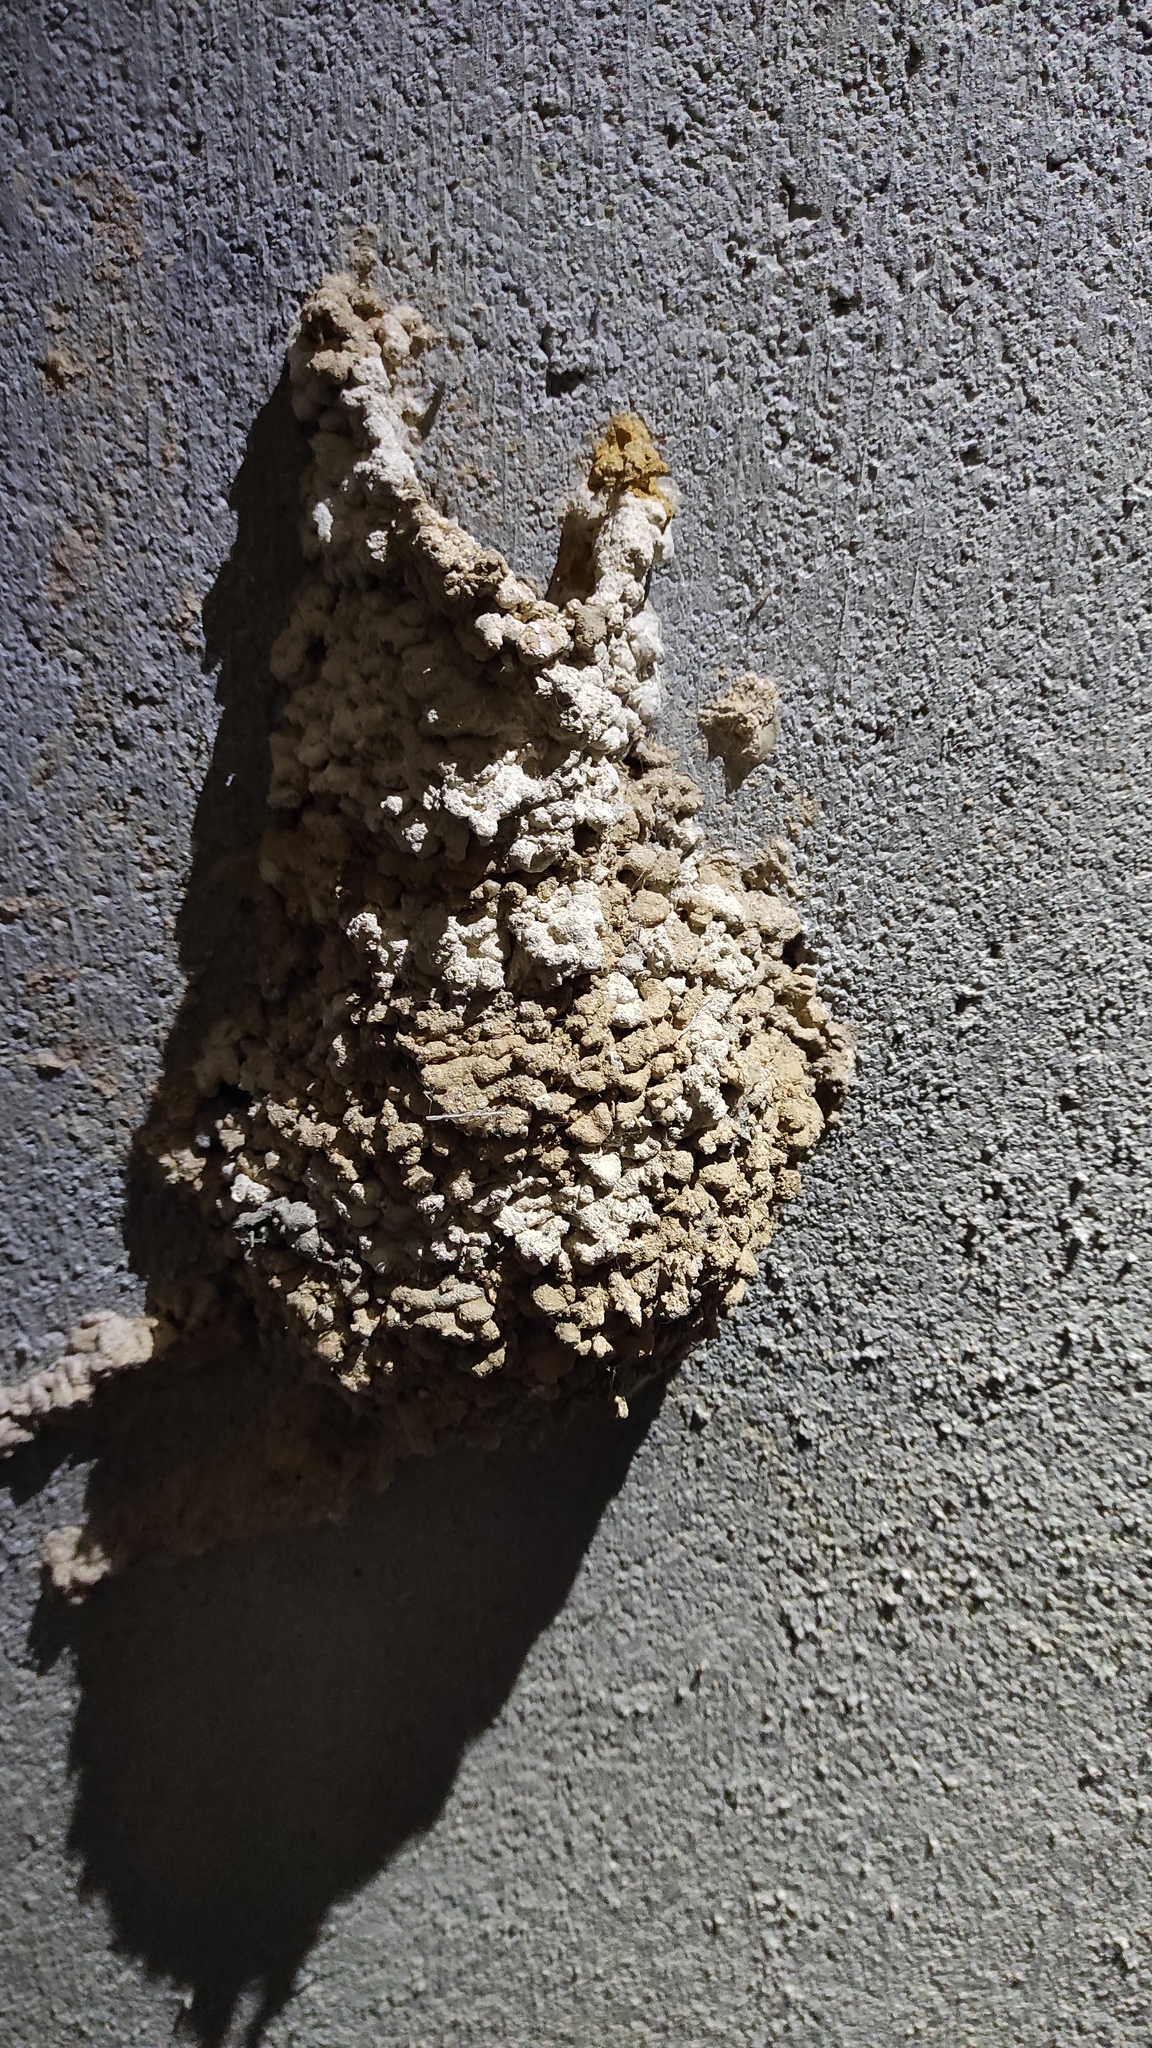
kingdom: Animalia
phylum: Chordata
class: Squamata
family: Phyllodactylidae
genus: Tarentola
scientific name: Tarentola mauritanica
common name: Moorish gecko
